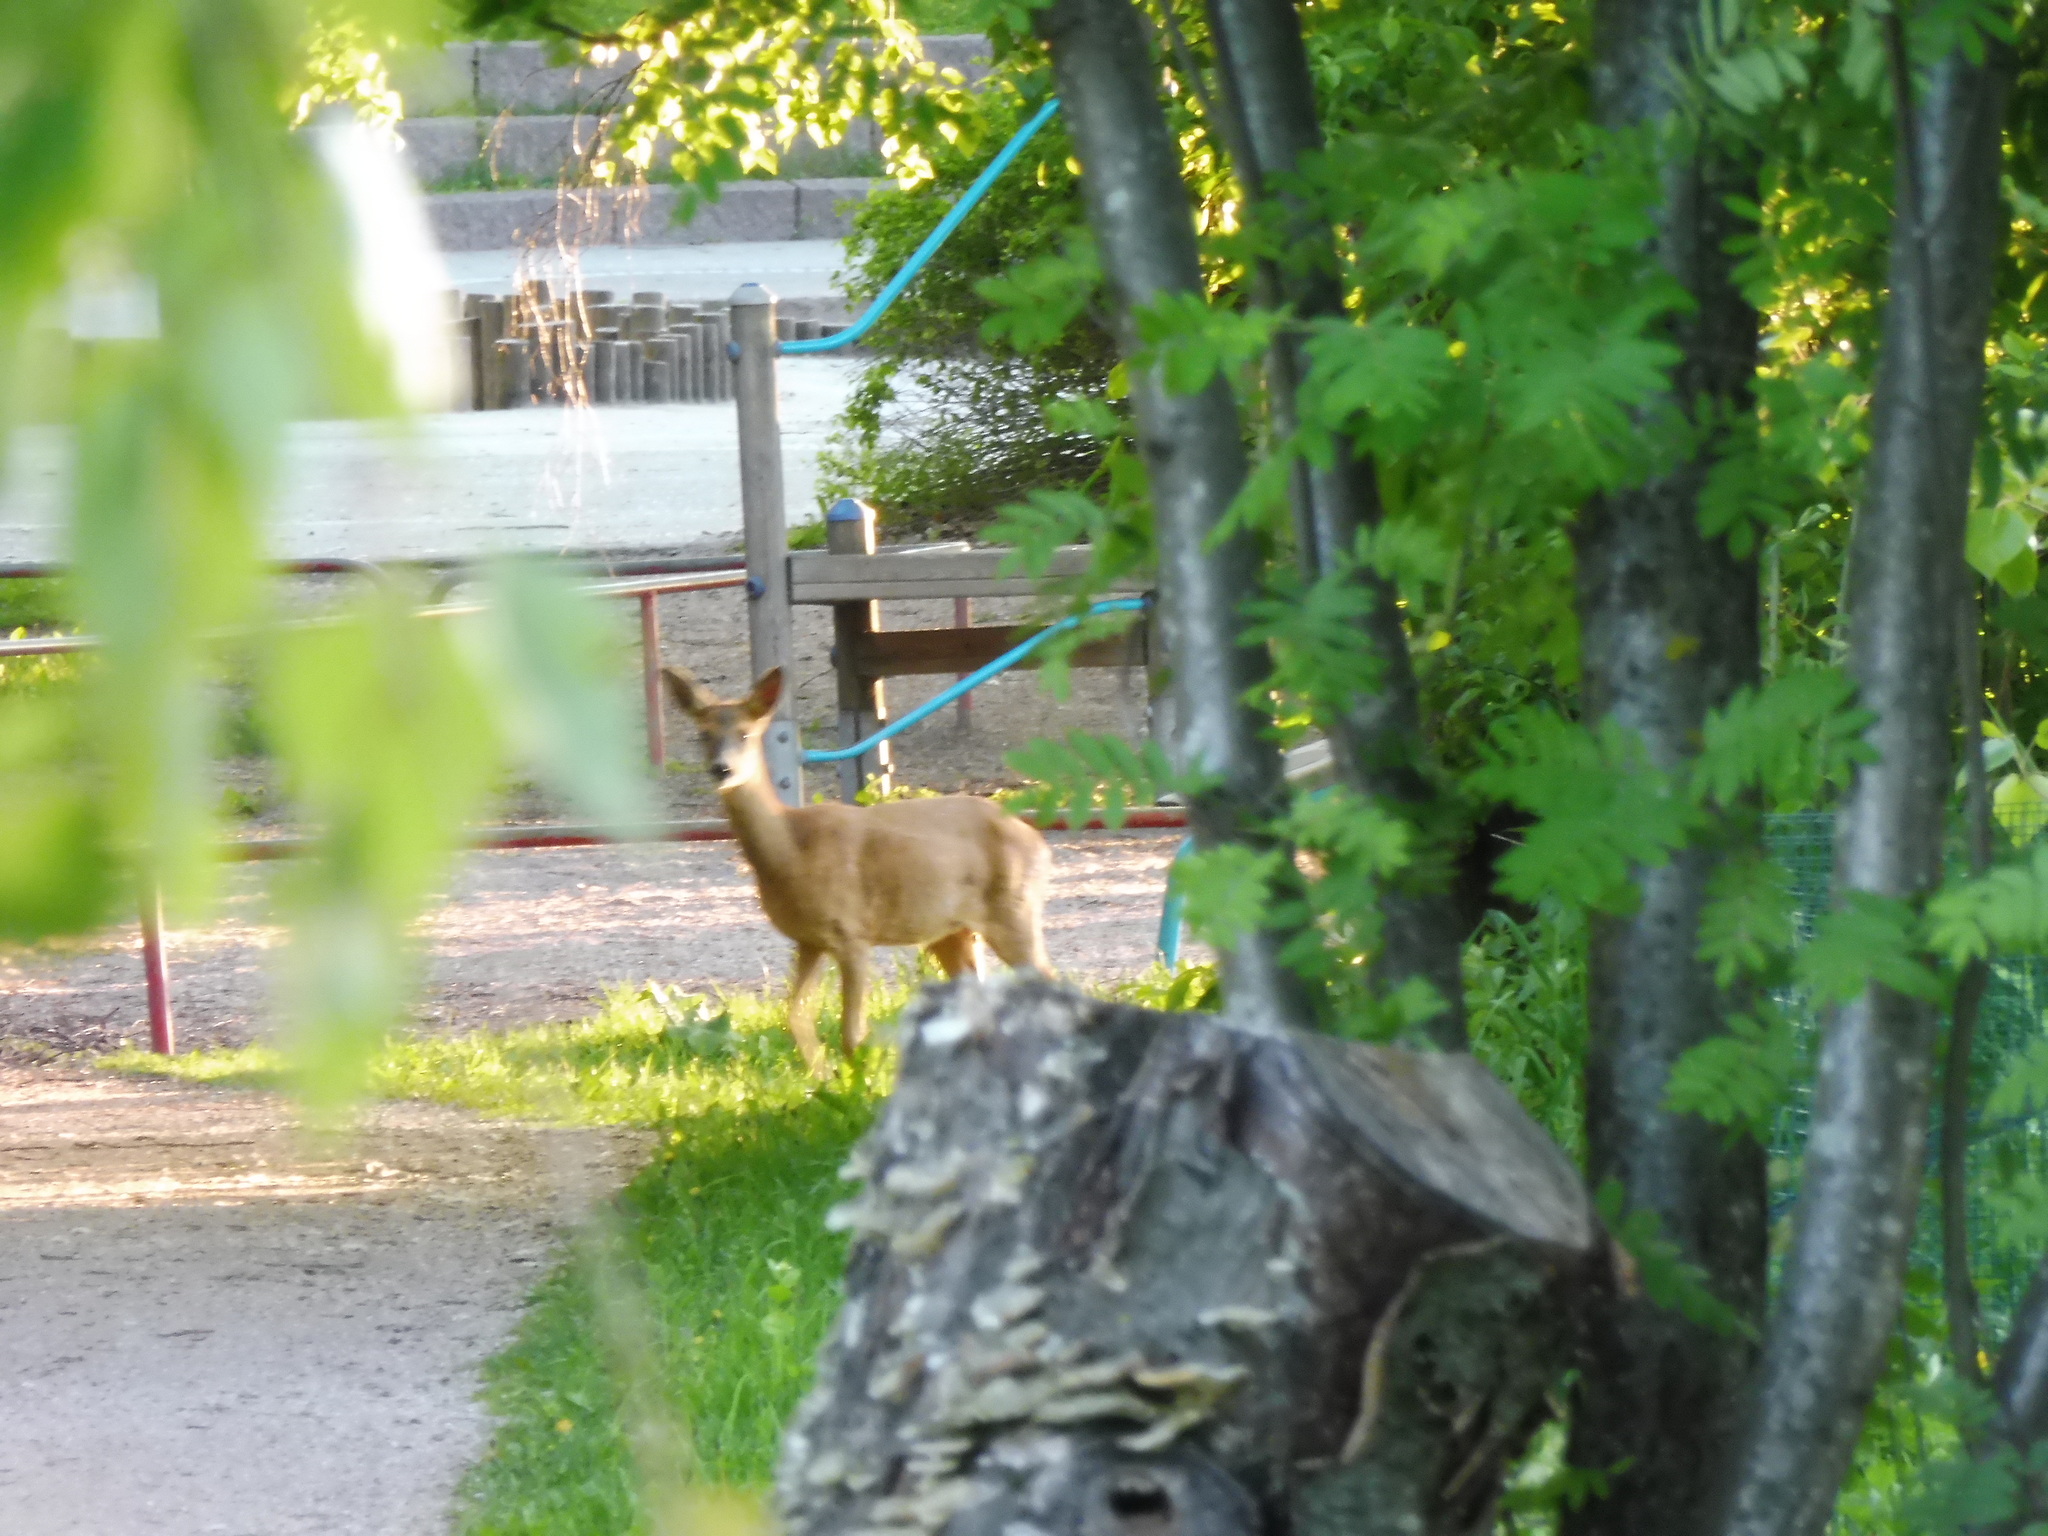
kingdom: Animalia
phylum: Chordata
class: Mammalia
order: Artiodactyla
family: Cervidae
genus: Capreolus
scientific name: Capreolus capreolus
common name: Western roe deer
